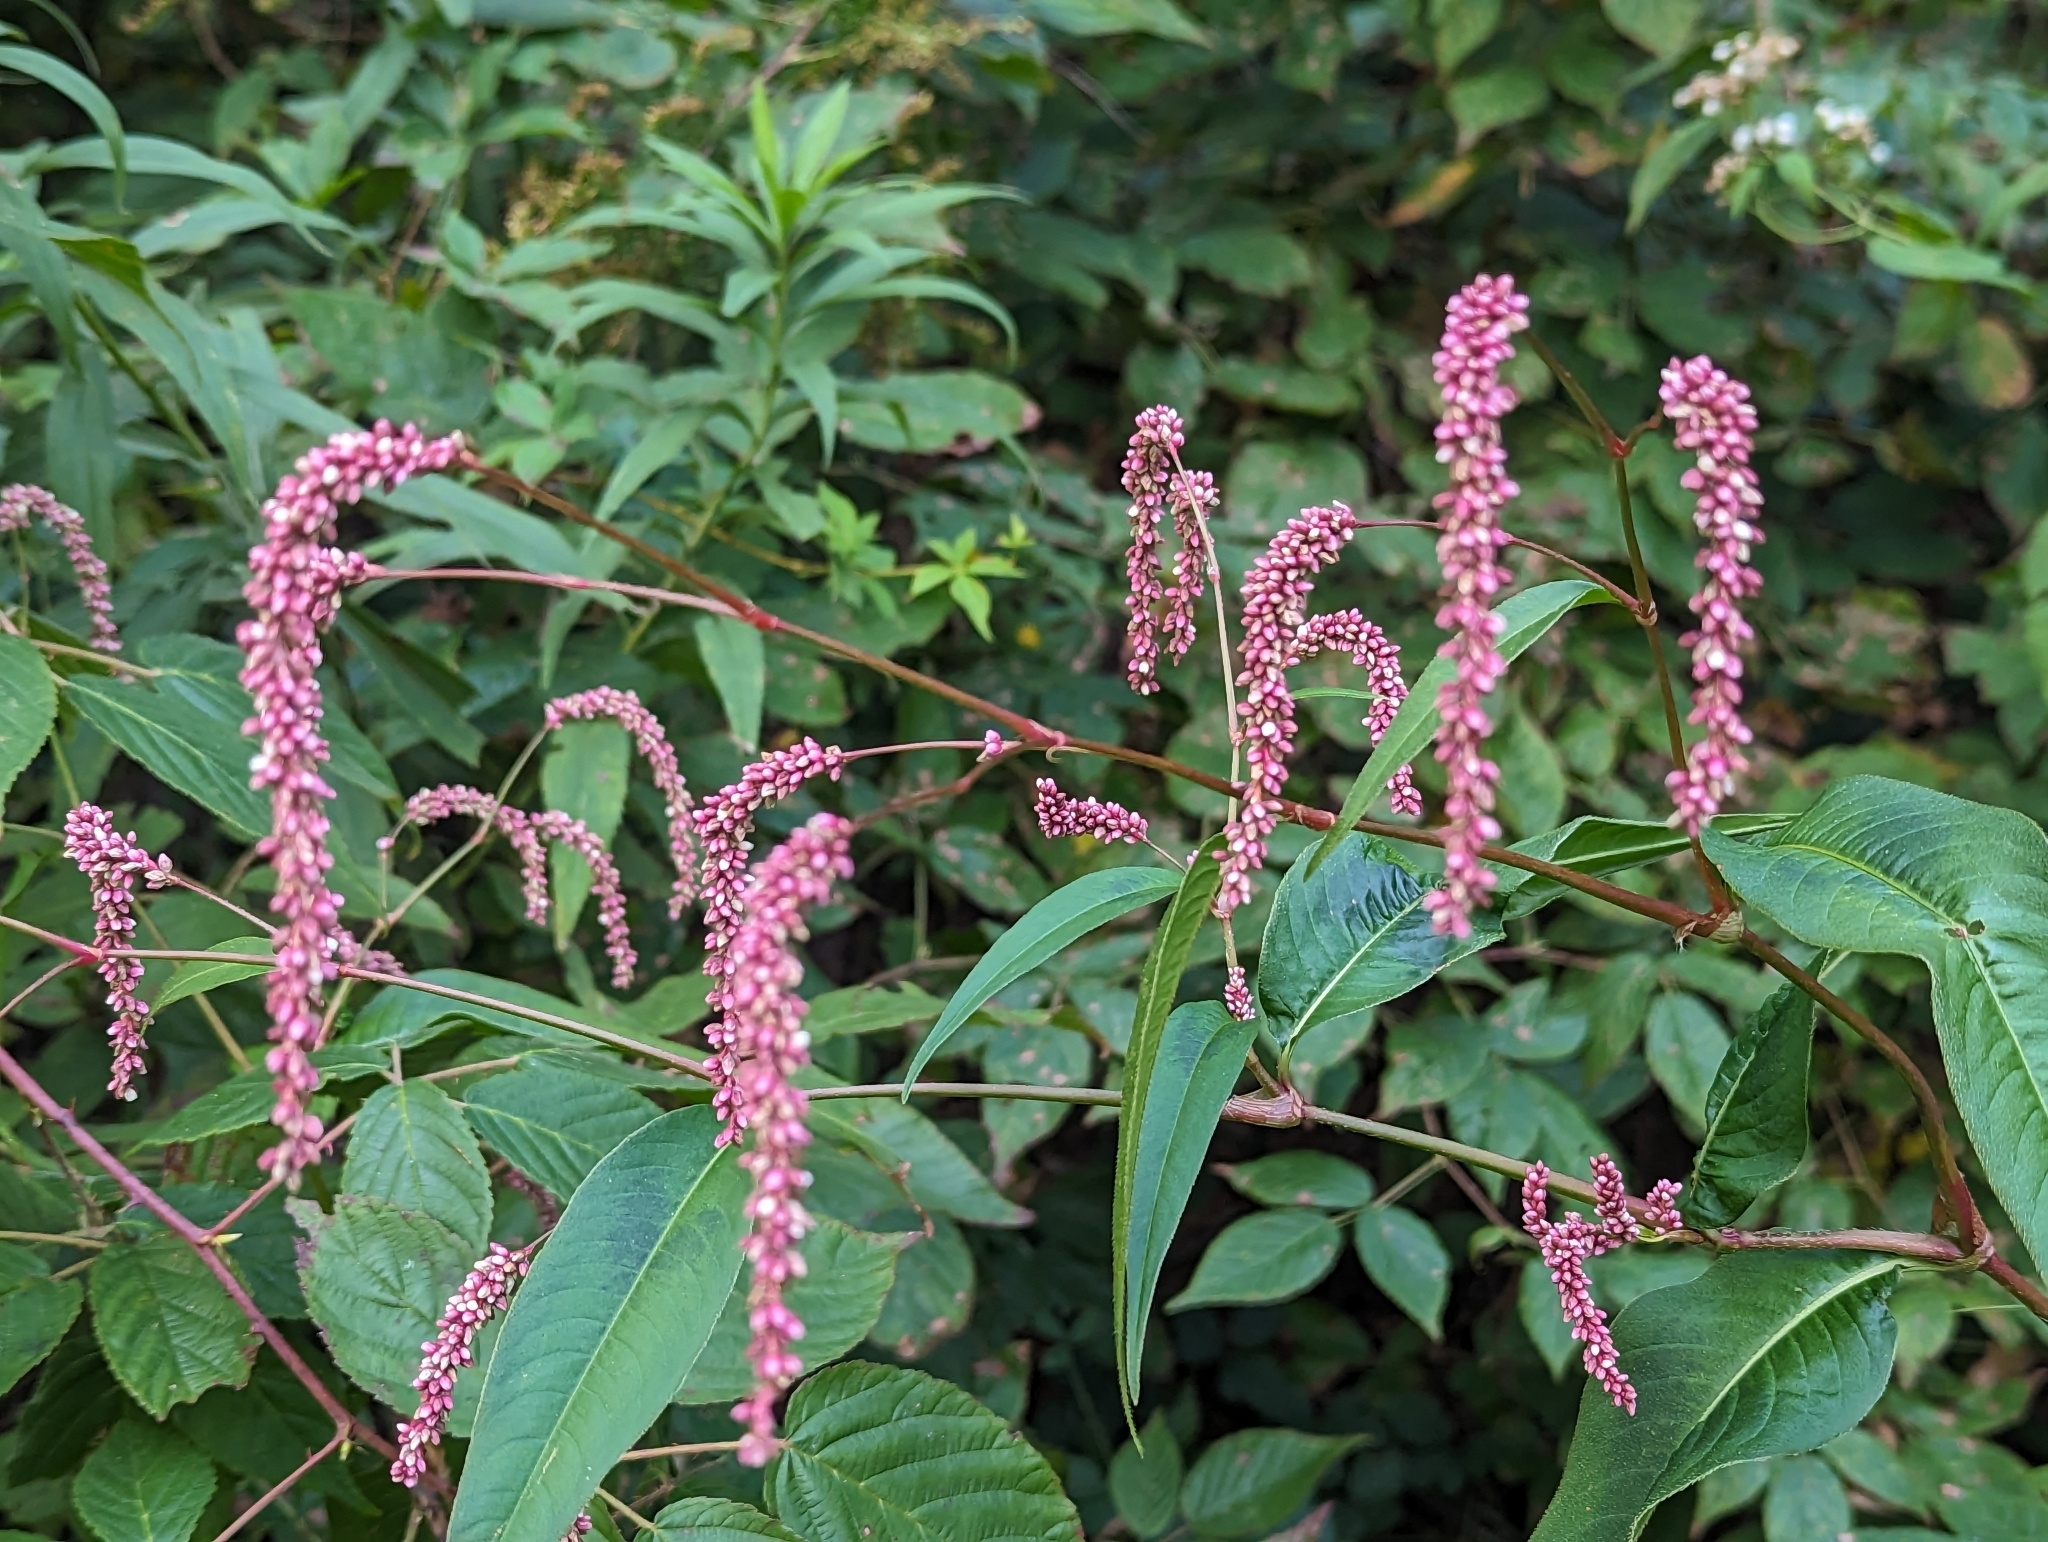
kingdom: Plantae
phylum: Tracheophyta
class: Magnoliopsida
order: Caryophyllales
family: Polygonaceae
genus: Persicaria
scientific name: Persicaria extremiorientalis
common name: Far-eastern smartweed
